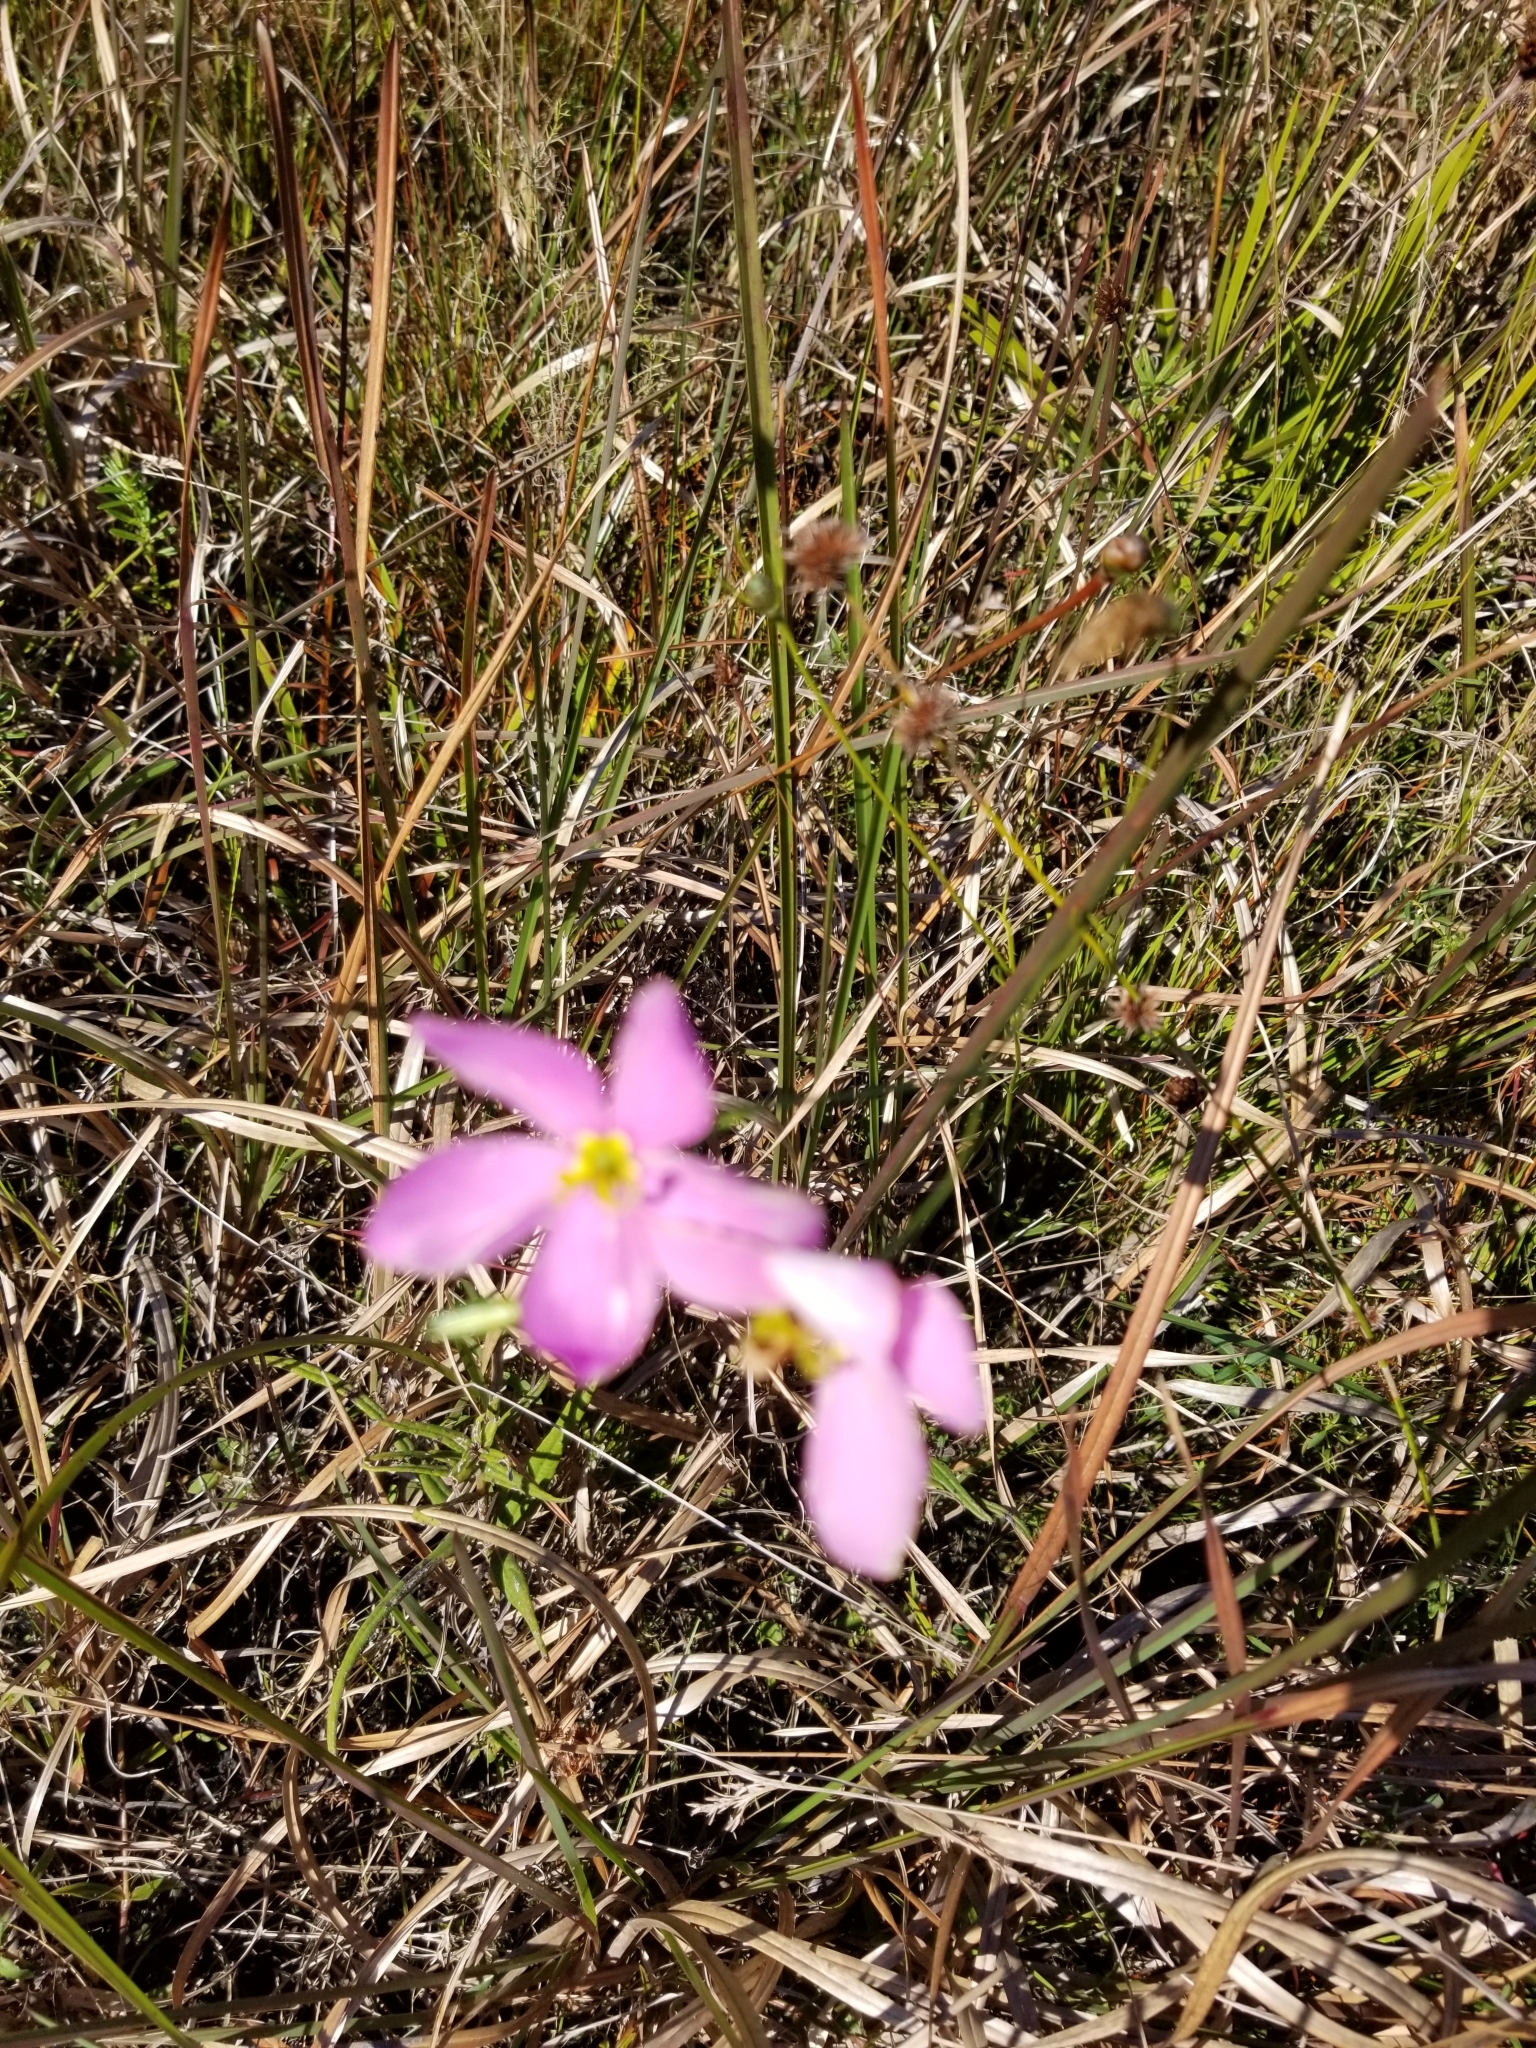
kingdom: Plantae
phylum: Tracheophyta
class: Magnoliopsida
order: Gentianales
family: Gentianaceae
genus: Sabatia
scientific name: Sabatia stellaris
